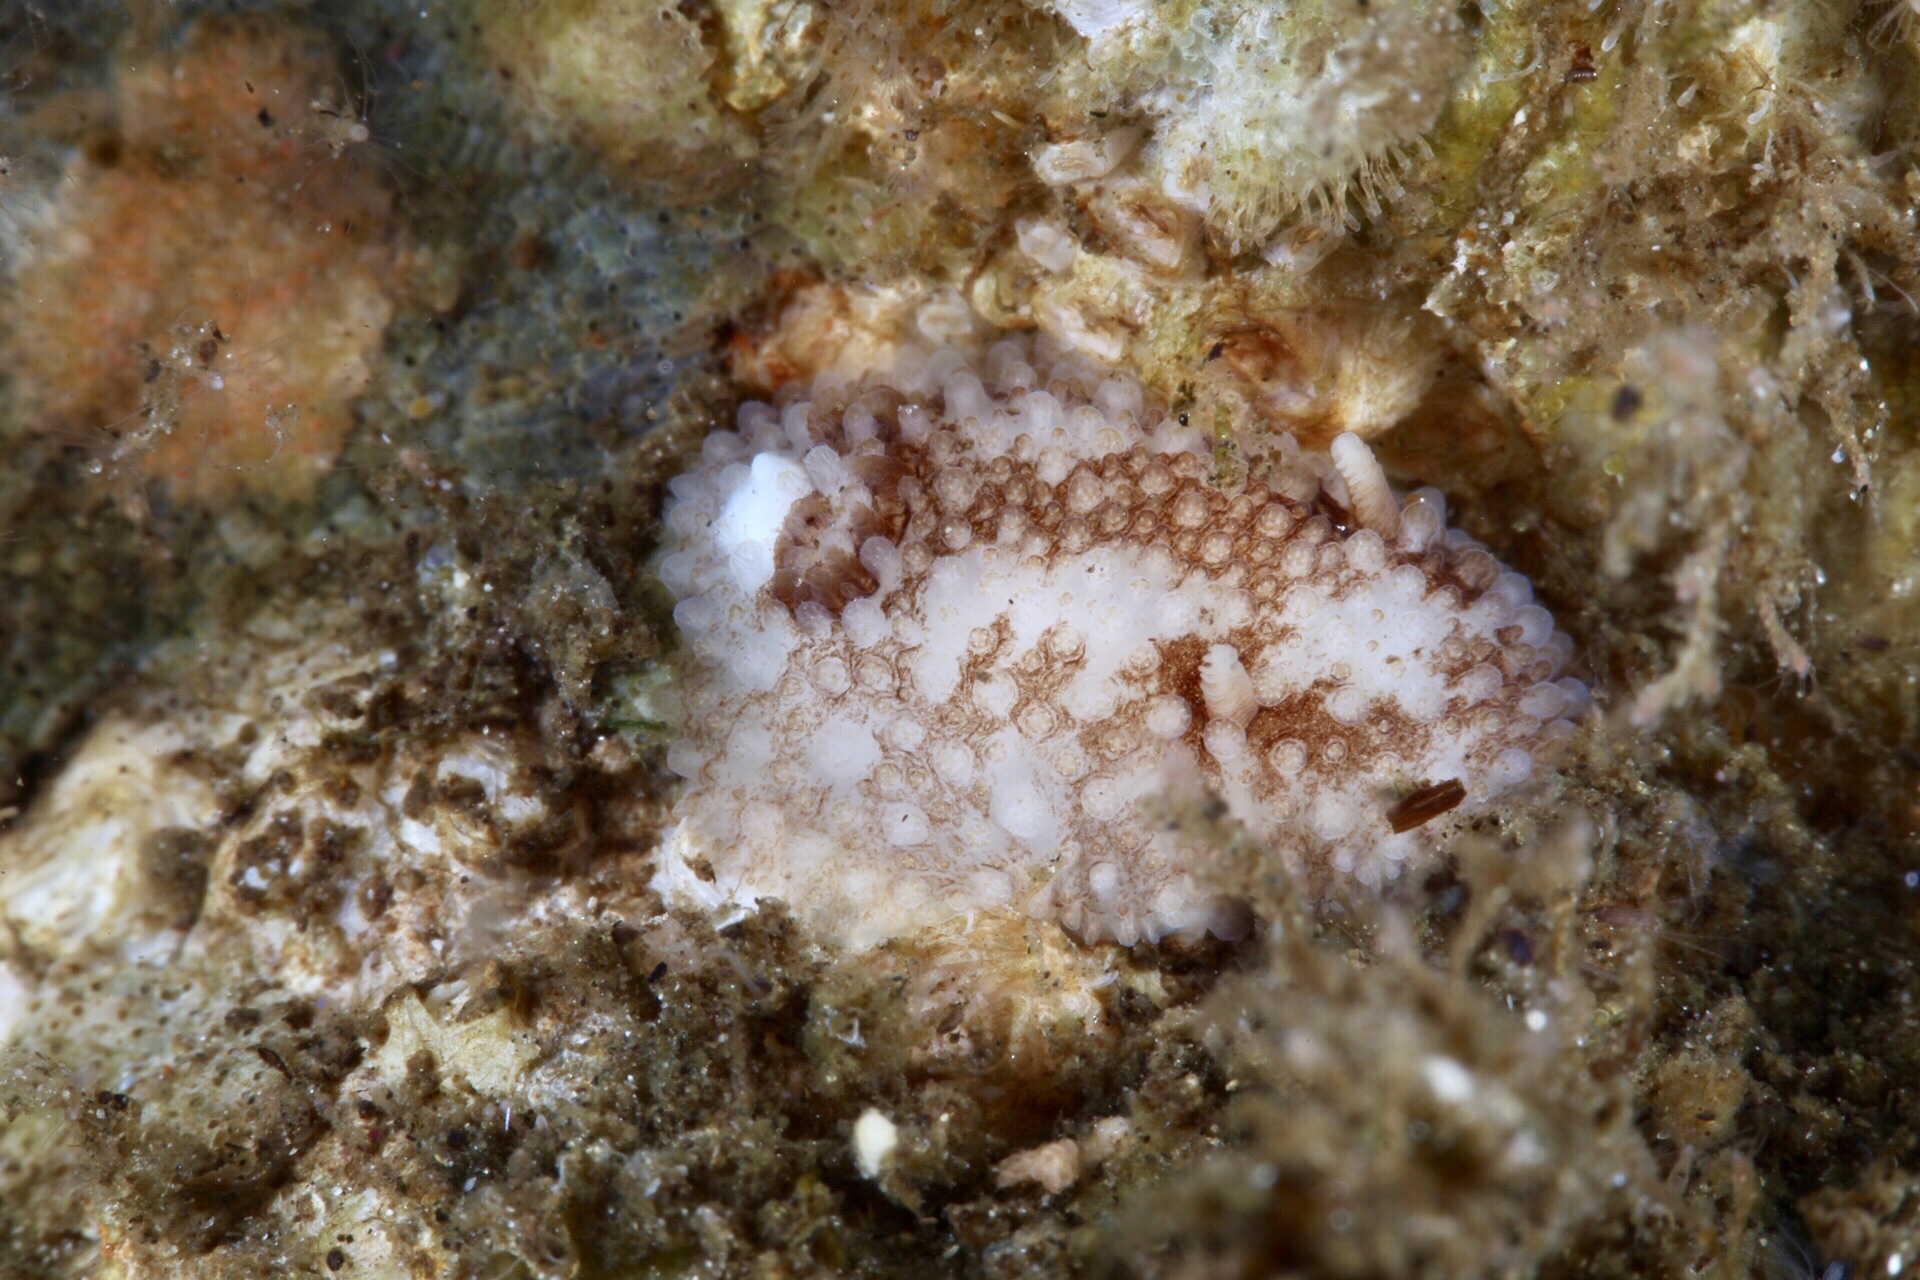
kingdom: Animalia
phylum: Mollusca
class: Gastropoda
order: Nudibranchia
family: Onchidorididae
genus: Onchidoris
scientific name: Onchidoris bilamellata
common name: Barnacle-eating onchidoris
